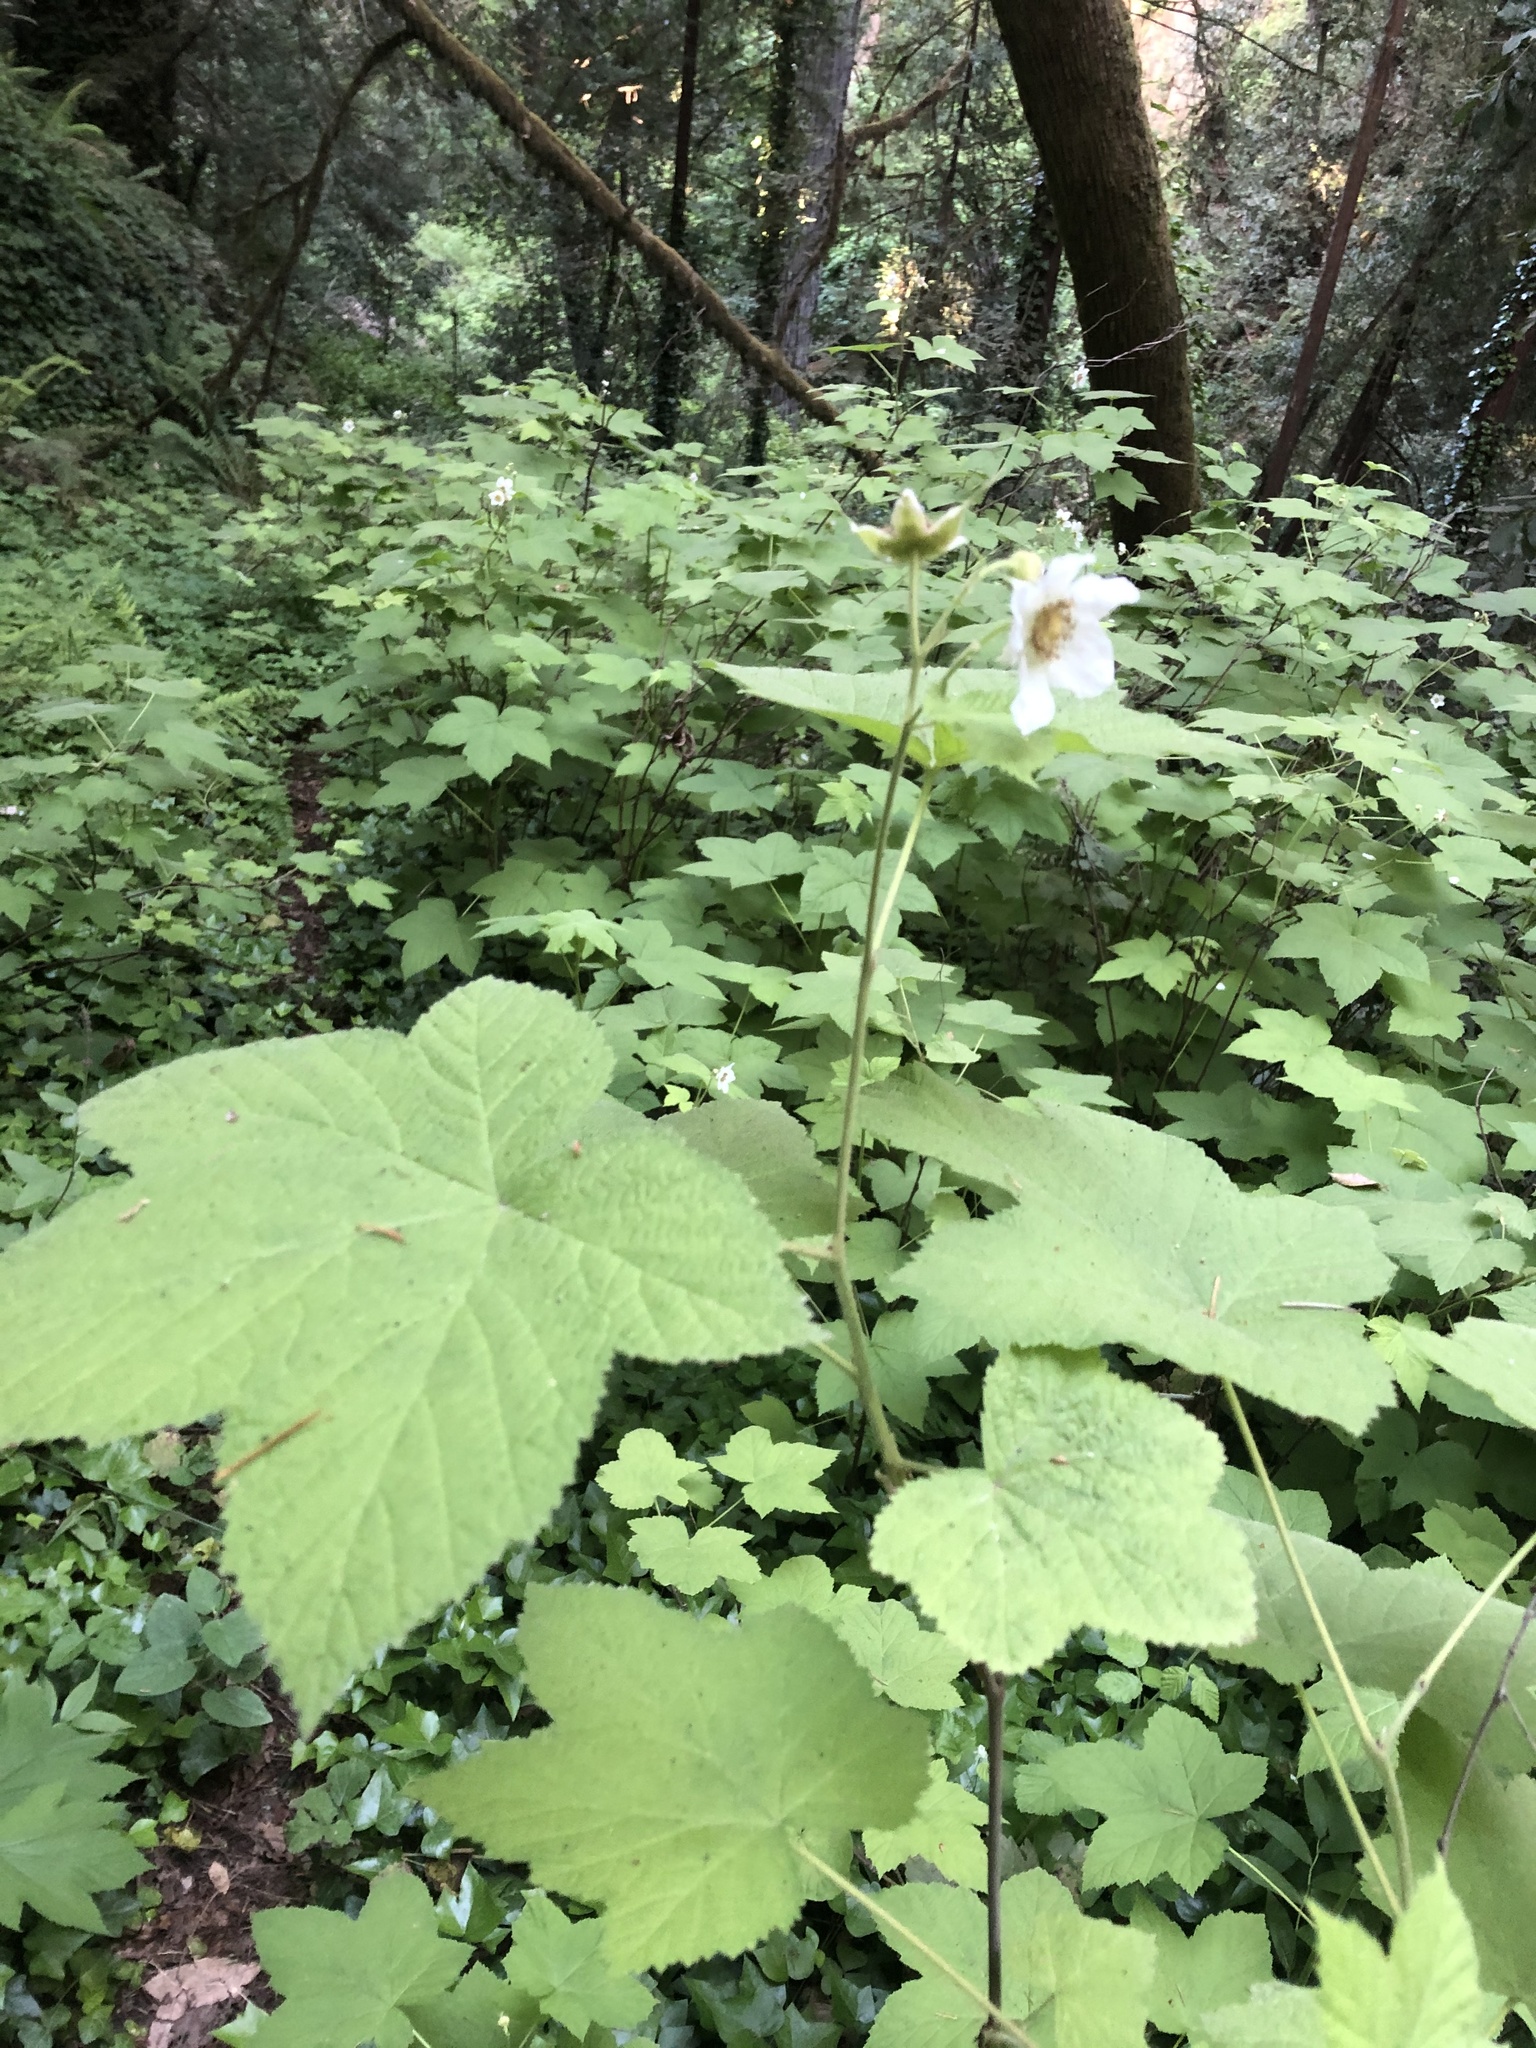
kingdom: Plantae
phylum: Tracheophyta
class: Magnoliopsida
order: Rosales
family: Rosaceae
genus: Rubus
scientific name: Rubus parviflorus
